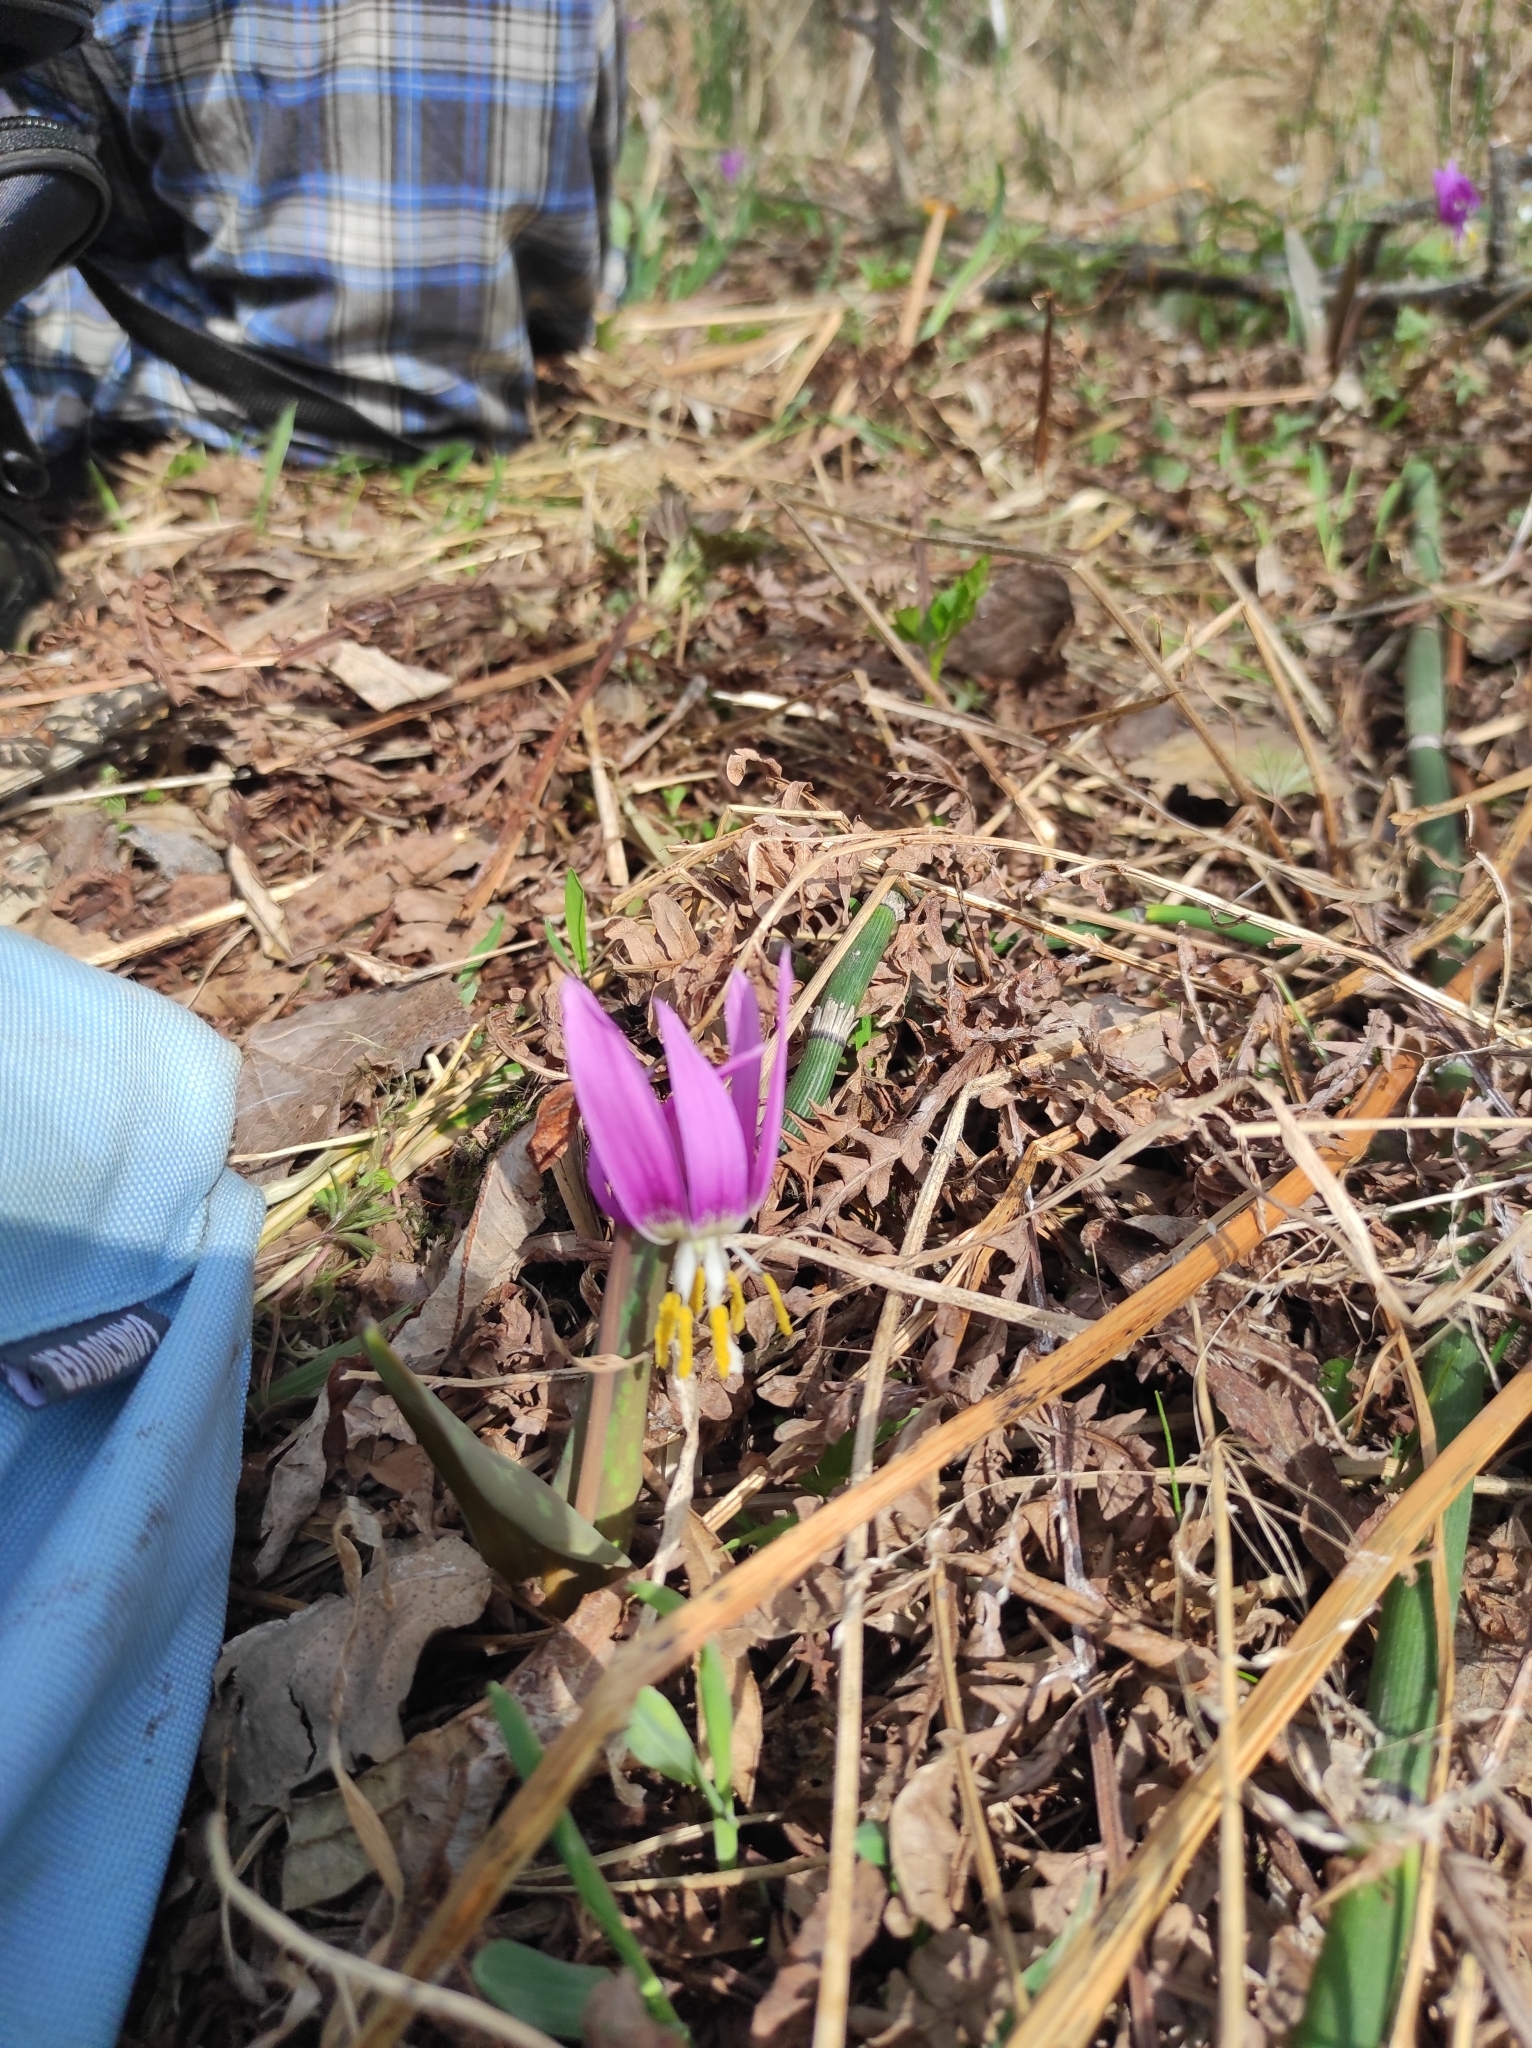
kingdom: Plantae
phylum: Tracheophyta
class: Liliopsida
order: Liliales
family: Liliaceae
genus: Erythronium
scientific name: Erythronium sibiricum
